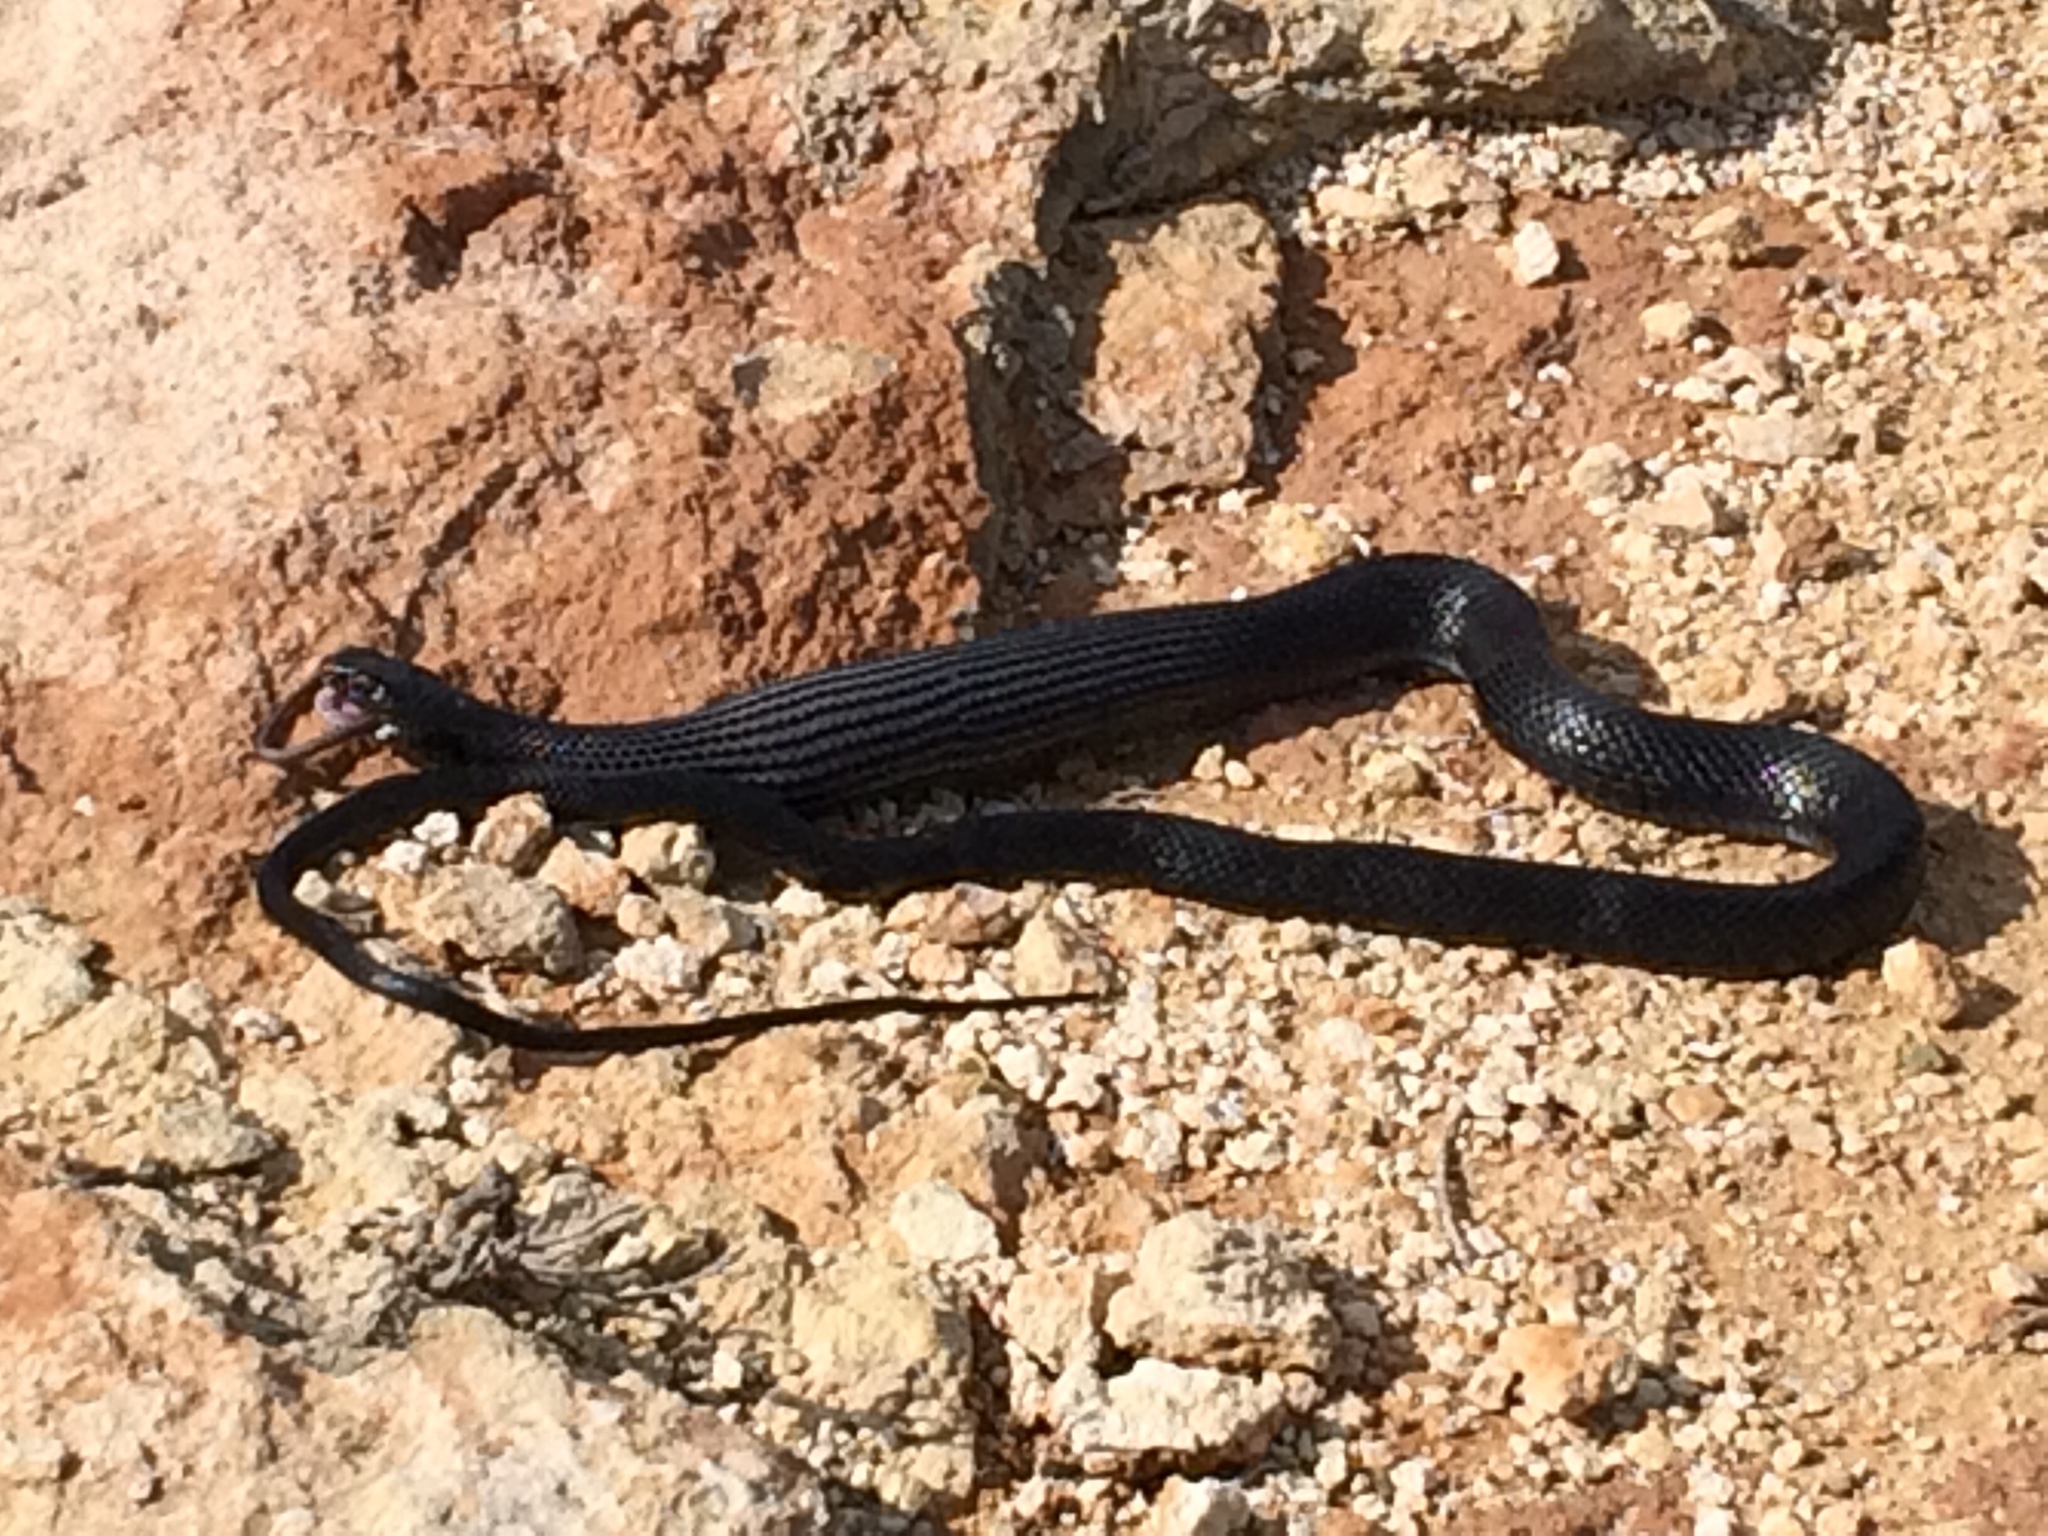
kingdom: Animalia
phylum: Chordata
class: Squamata
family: Colubridae
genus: Hierophis
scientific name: Hierophis viridiflavus
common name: Green whip snake
